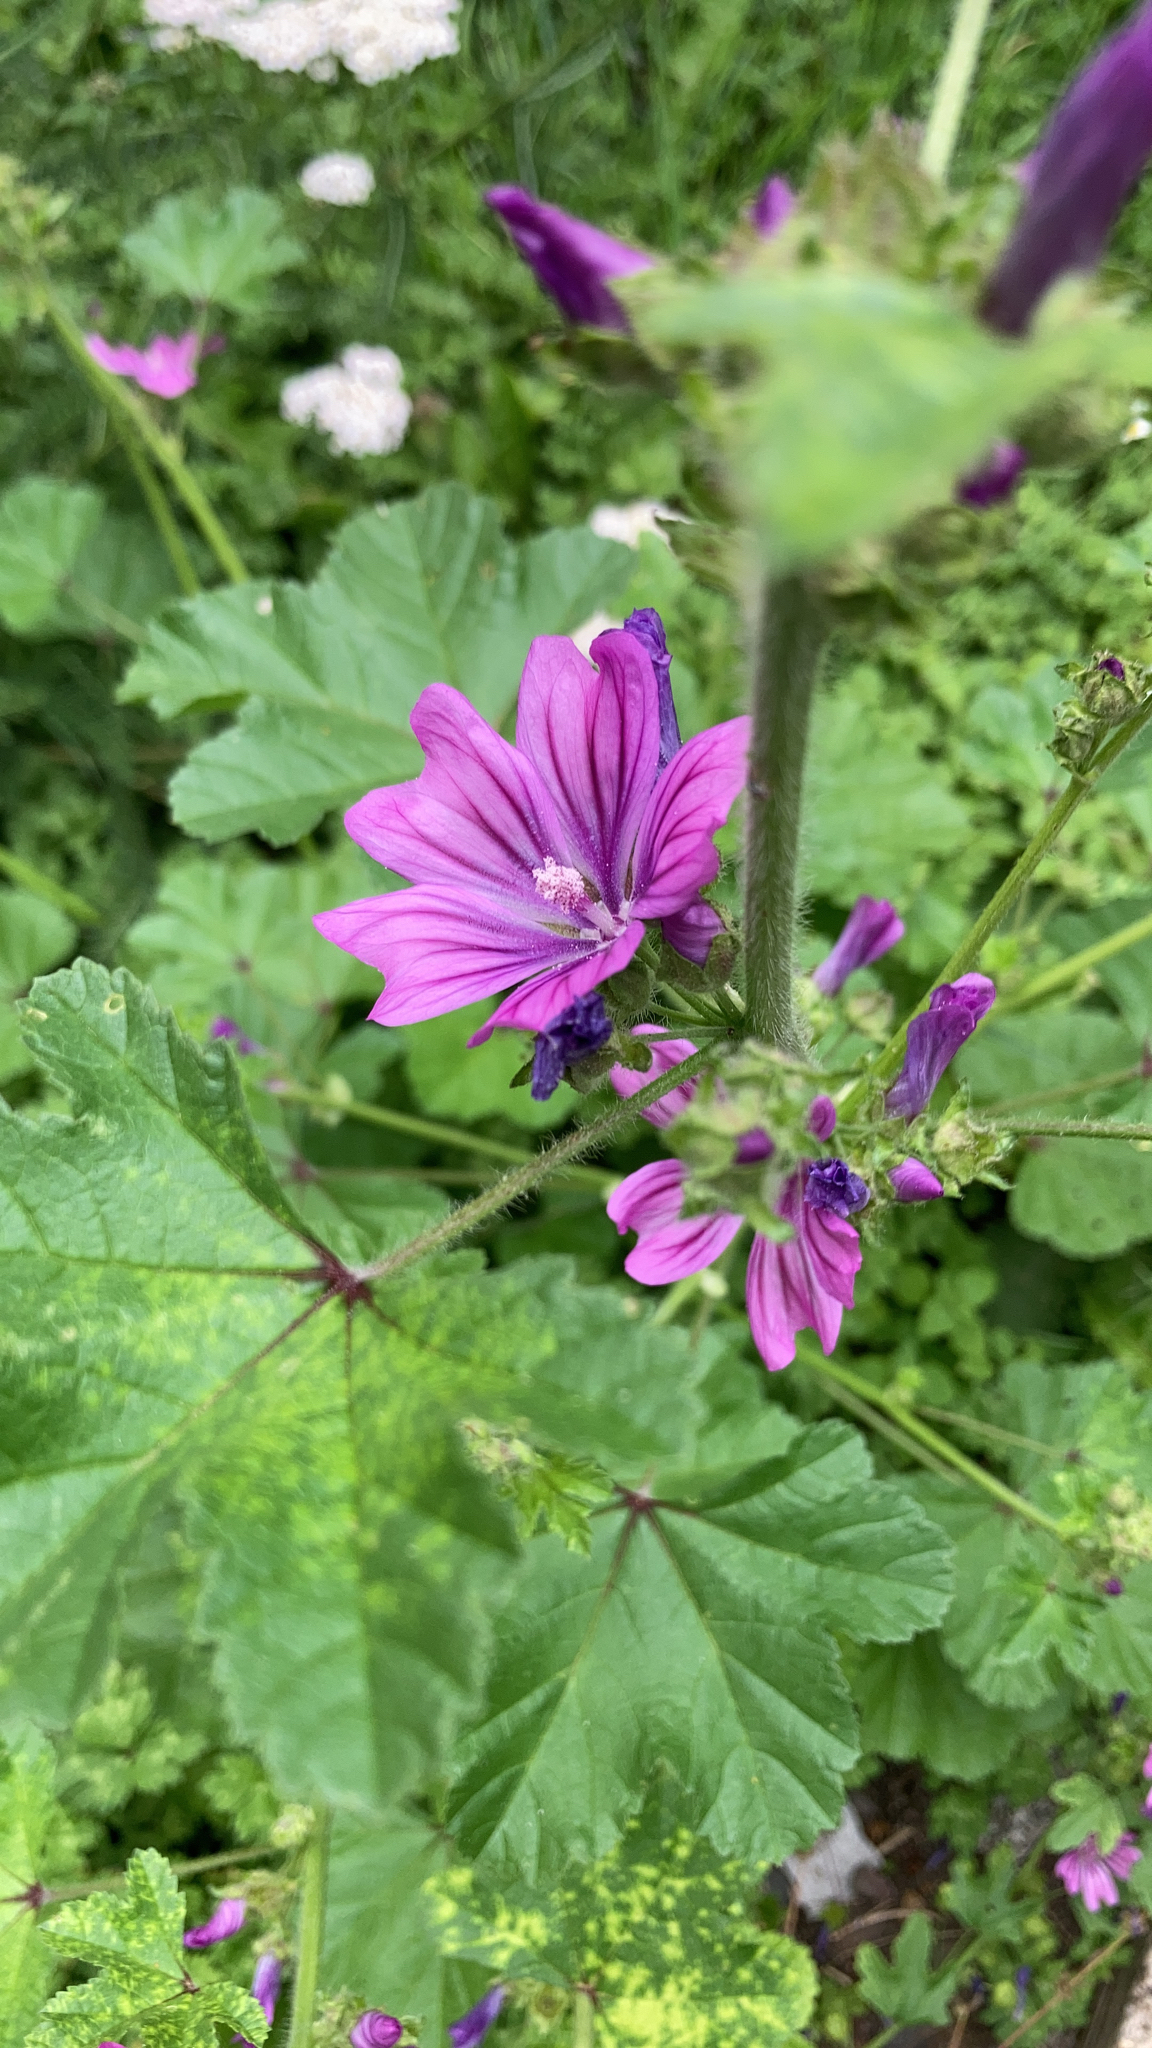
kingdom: Plantae
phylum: Tracheophyta
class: Magnoliopsida
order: Malvales
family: Malvaceae
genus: Malva
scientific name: Malva sylvestris
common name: Common mallow
